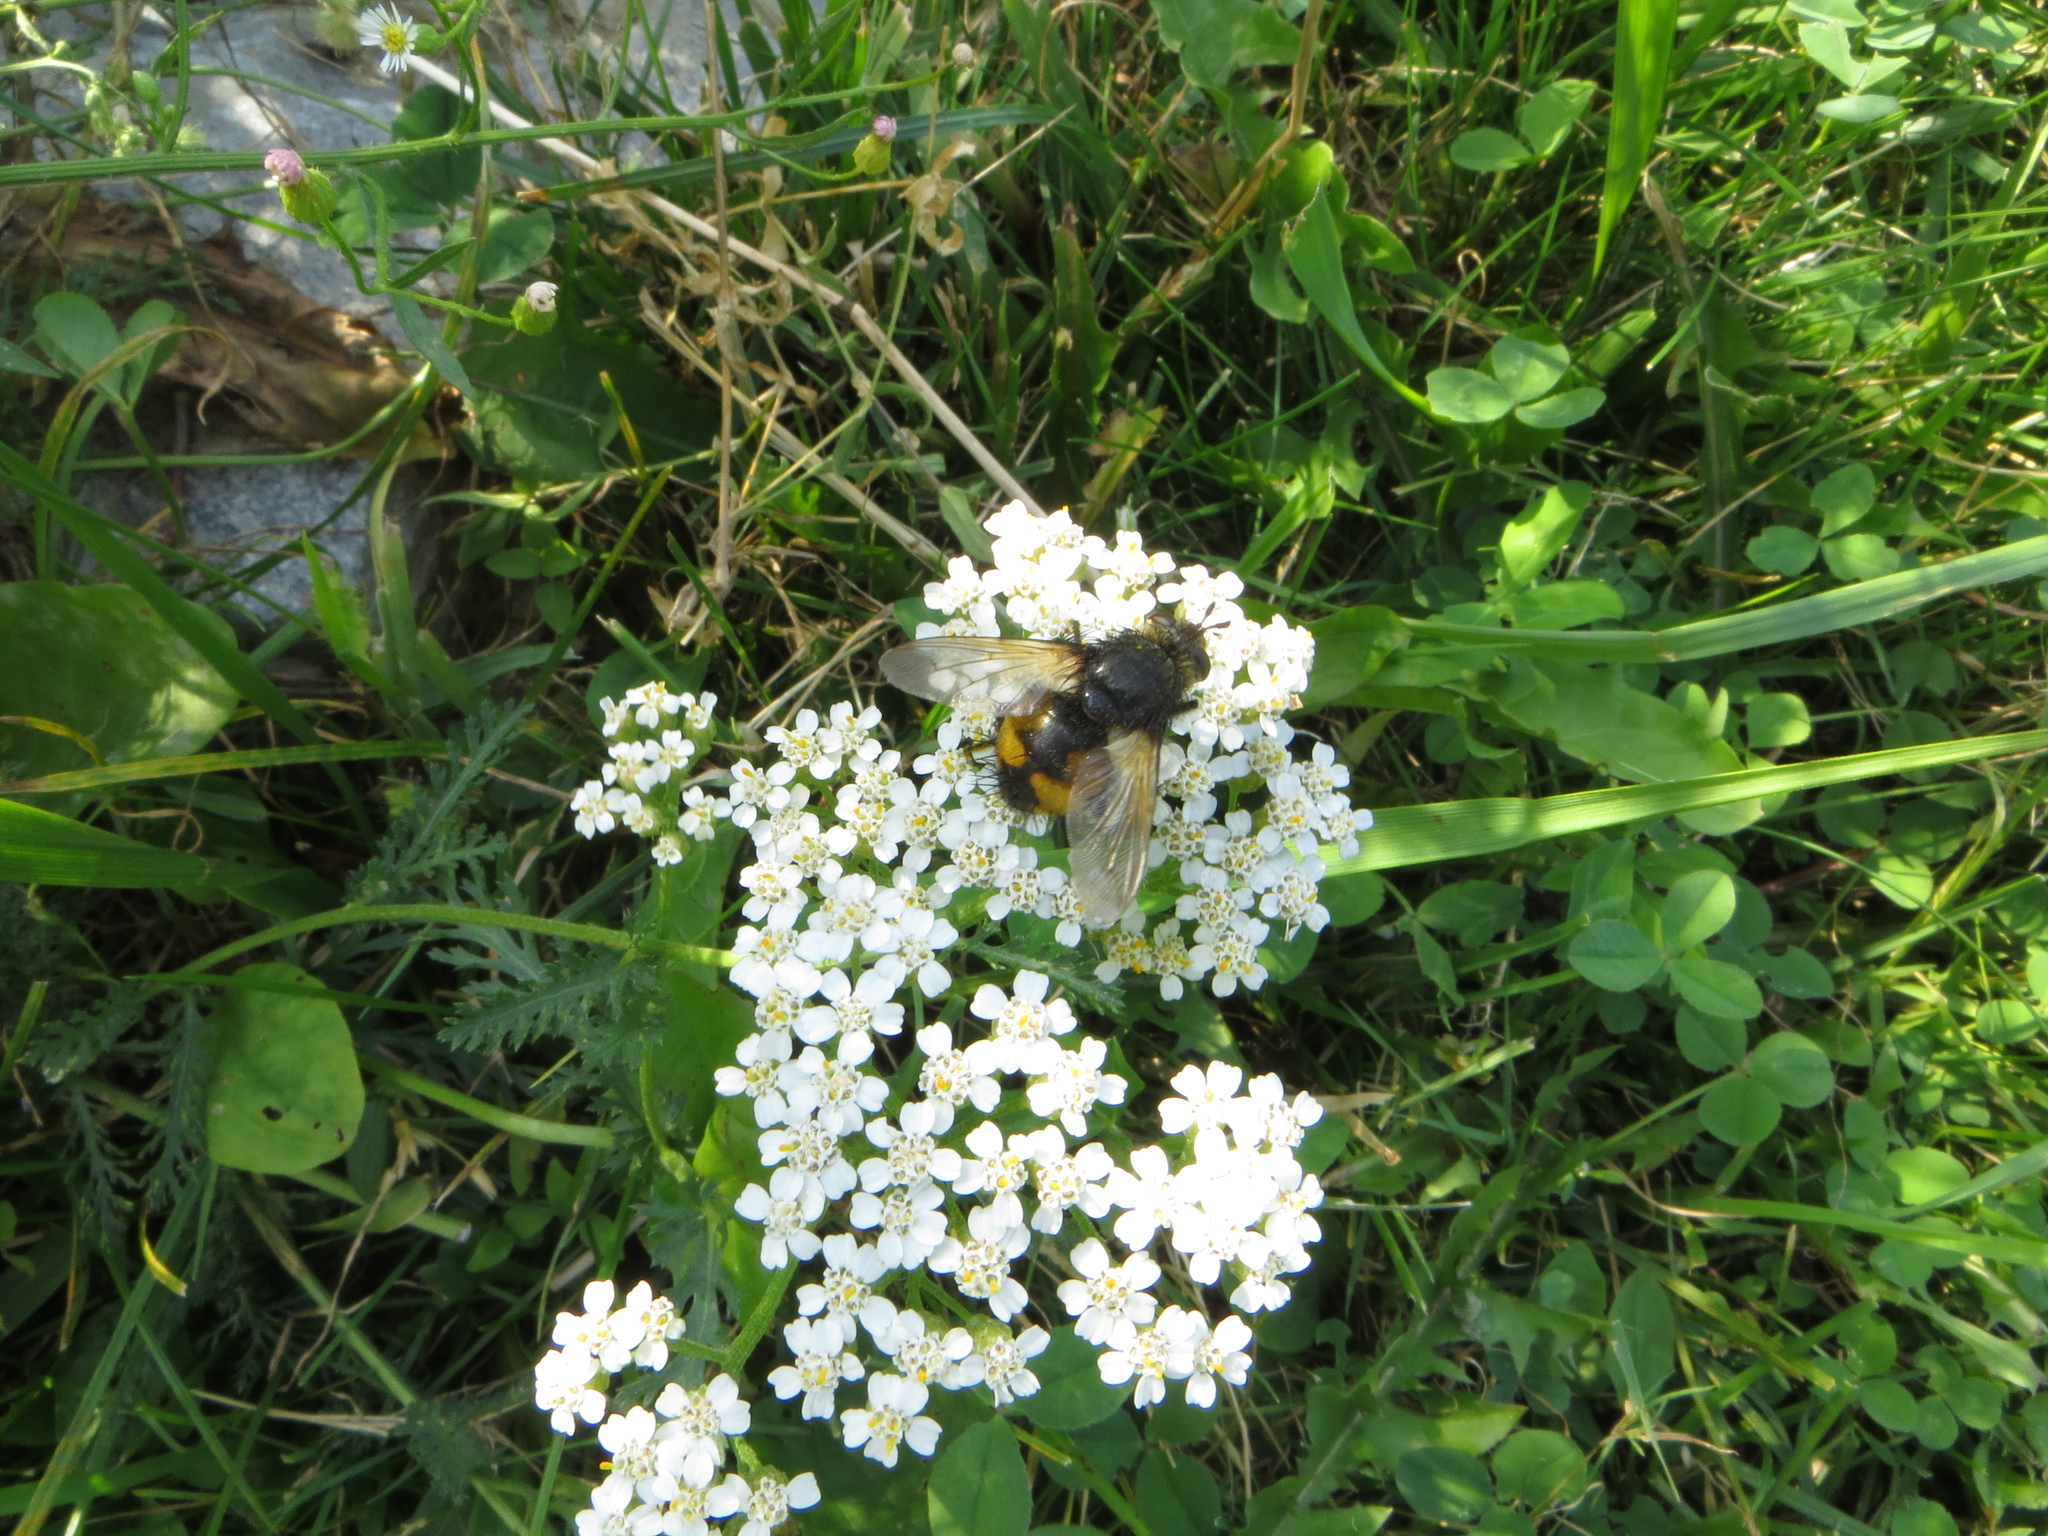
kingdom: Animalia
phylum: Arthropoda
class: Insecta
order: Diptera
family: Tachinidae
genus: Nowickia
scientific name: Nowickia ferox
